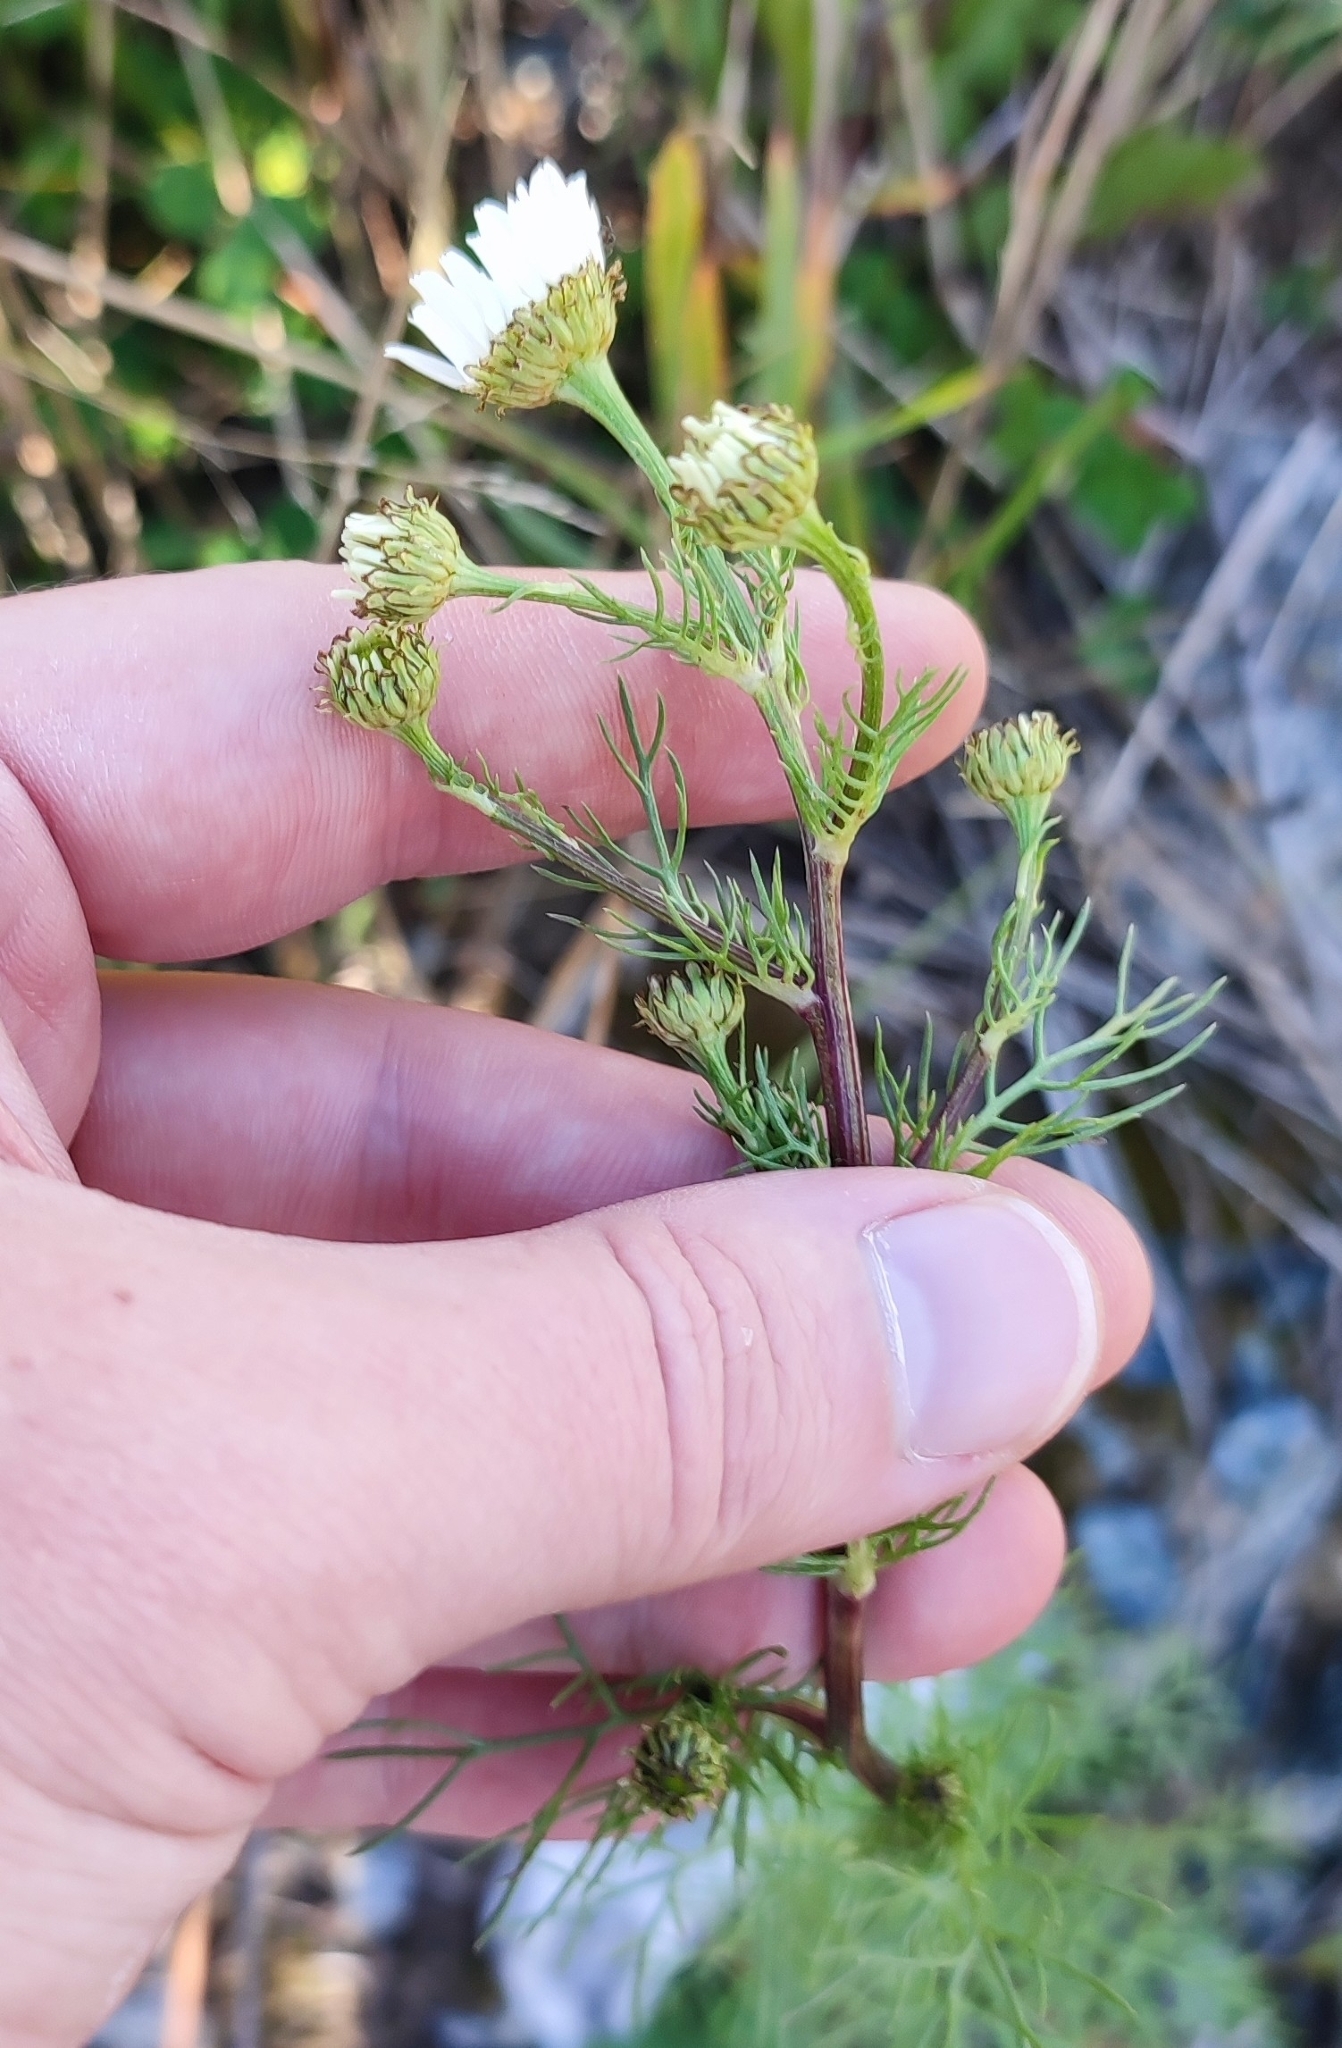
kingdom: Plantae
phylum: Tracheophyta
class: Magnoliopsida
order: Asterales
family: Asteraceae
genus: Tripleurospermum
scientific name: Tripleurospermum inodorum
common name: Scentless mayweed
